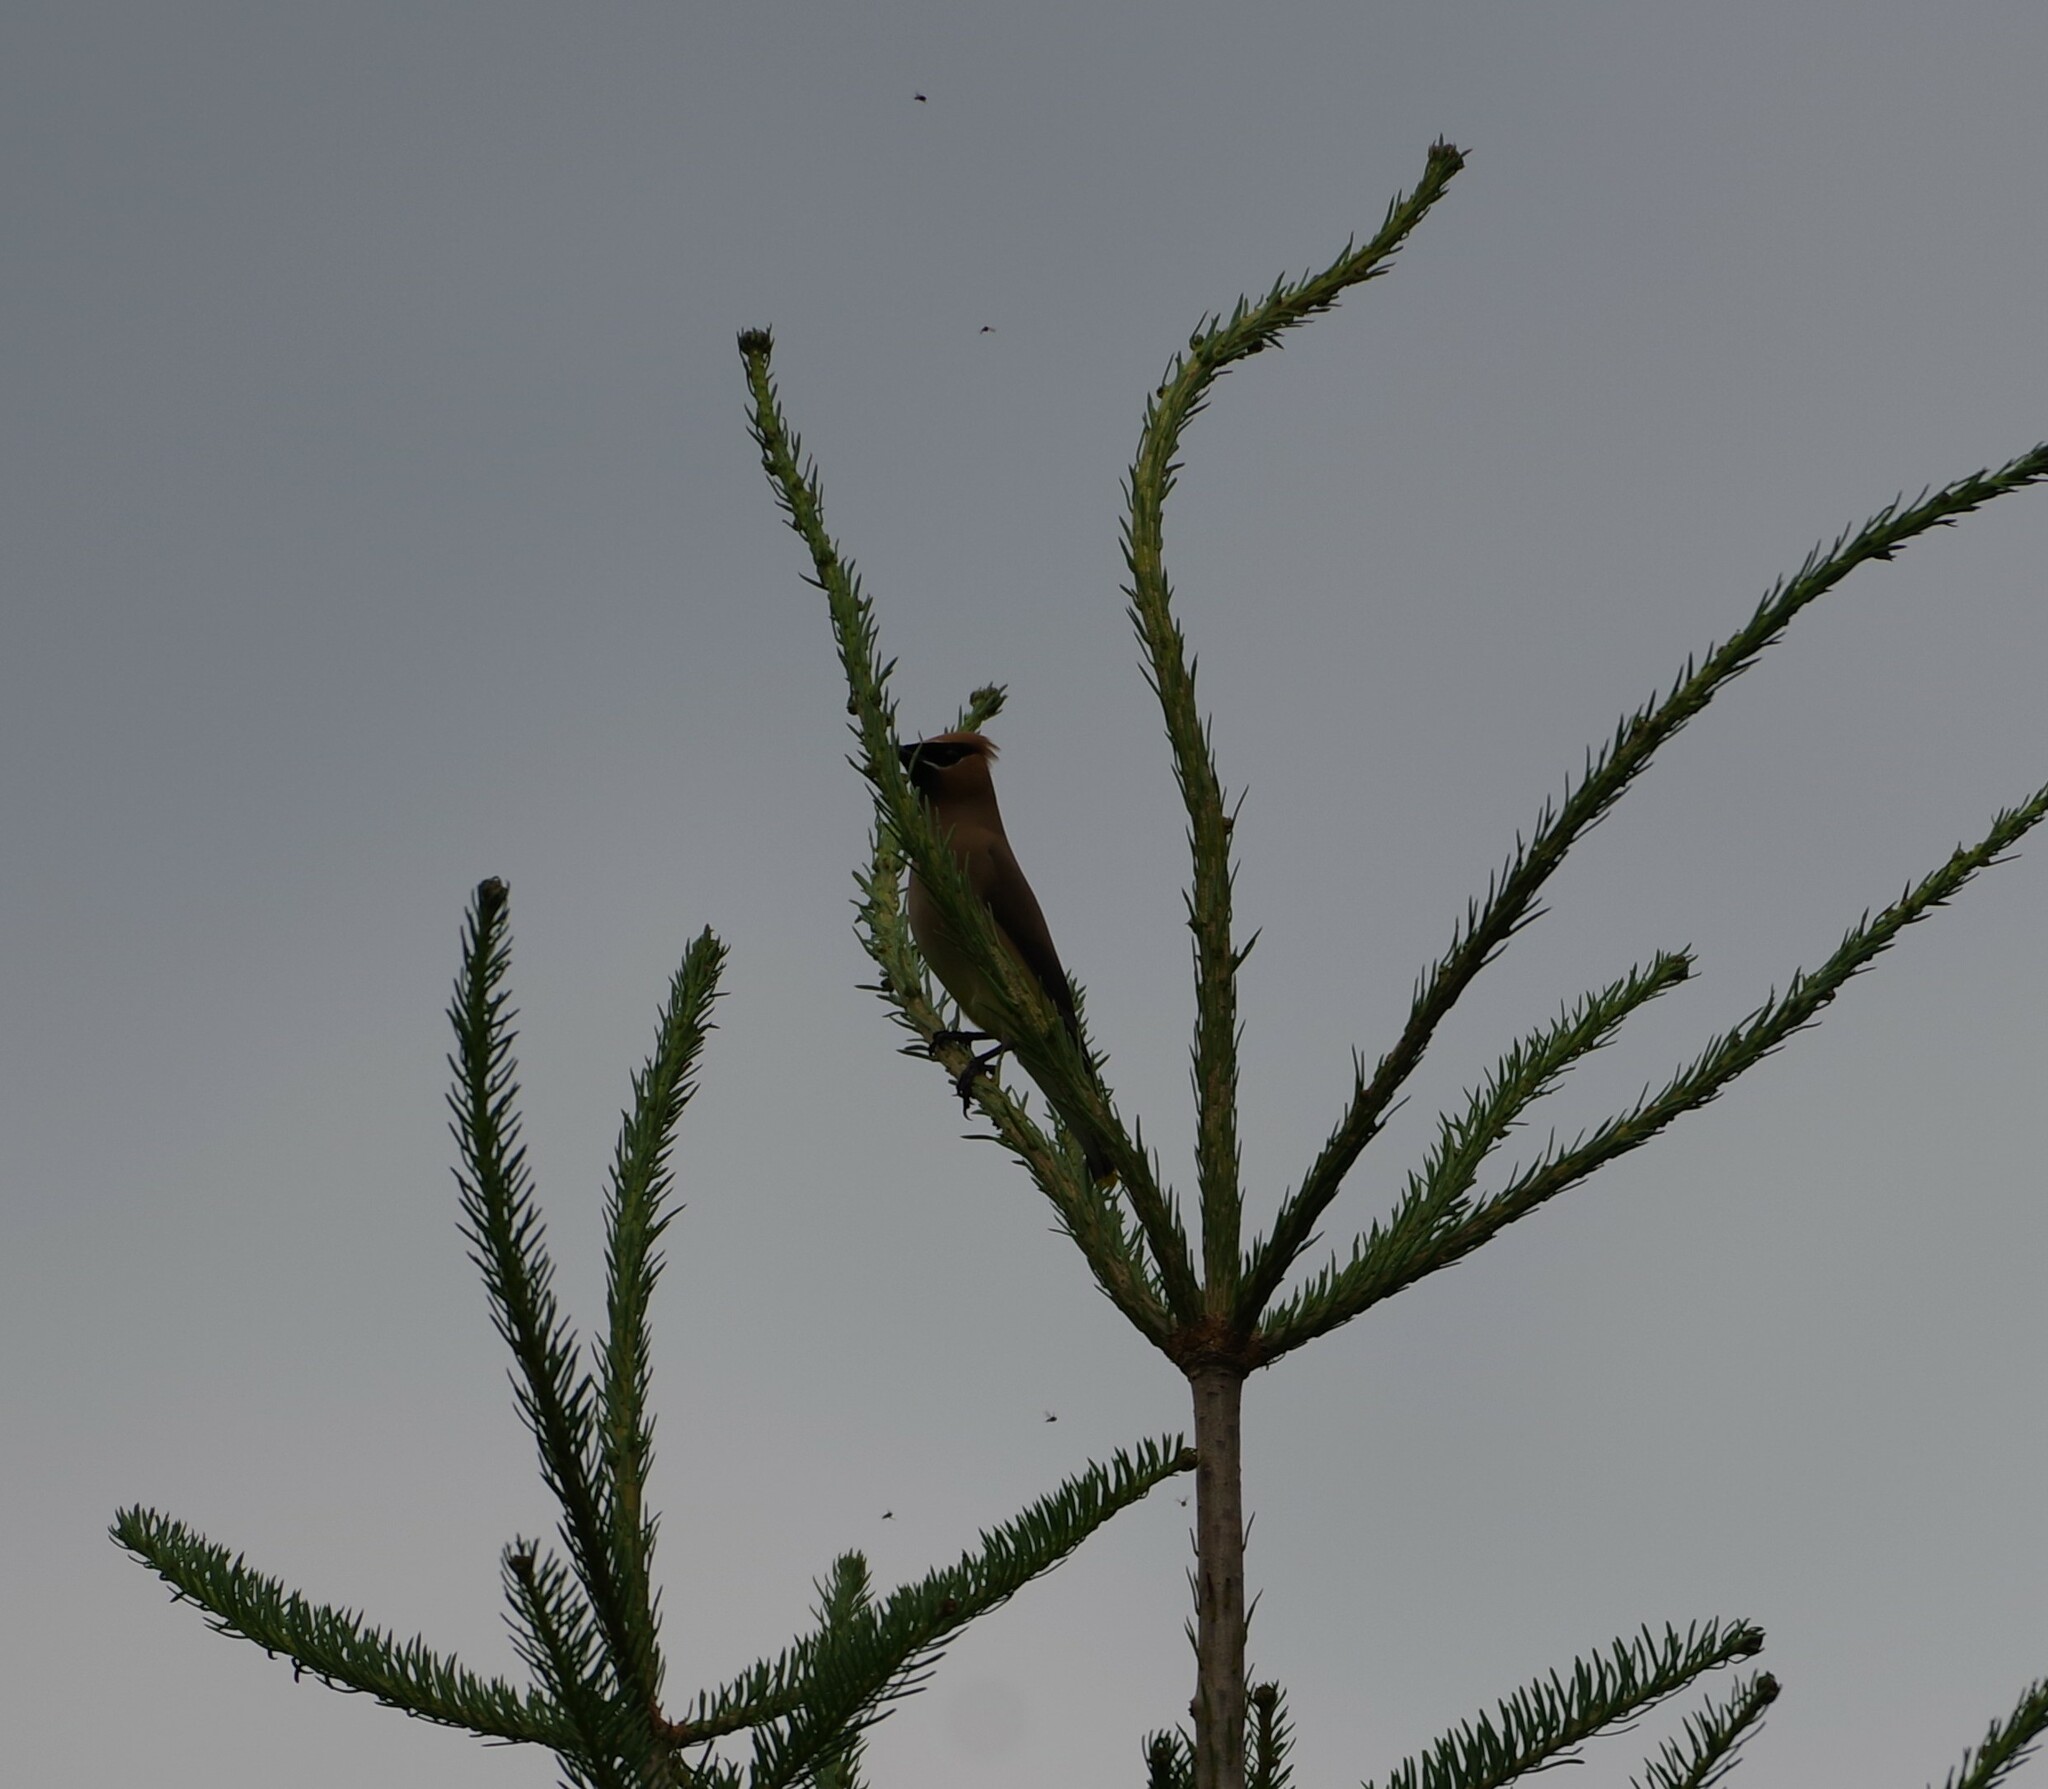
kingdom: Animalia
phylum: Chordata
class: Aves
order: Passeriformes
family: Bombycillidae
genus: Bombycilla
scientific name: Bombycilla cedrorum
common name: Cedar waxwing
